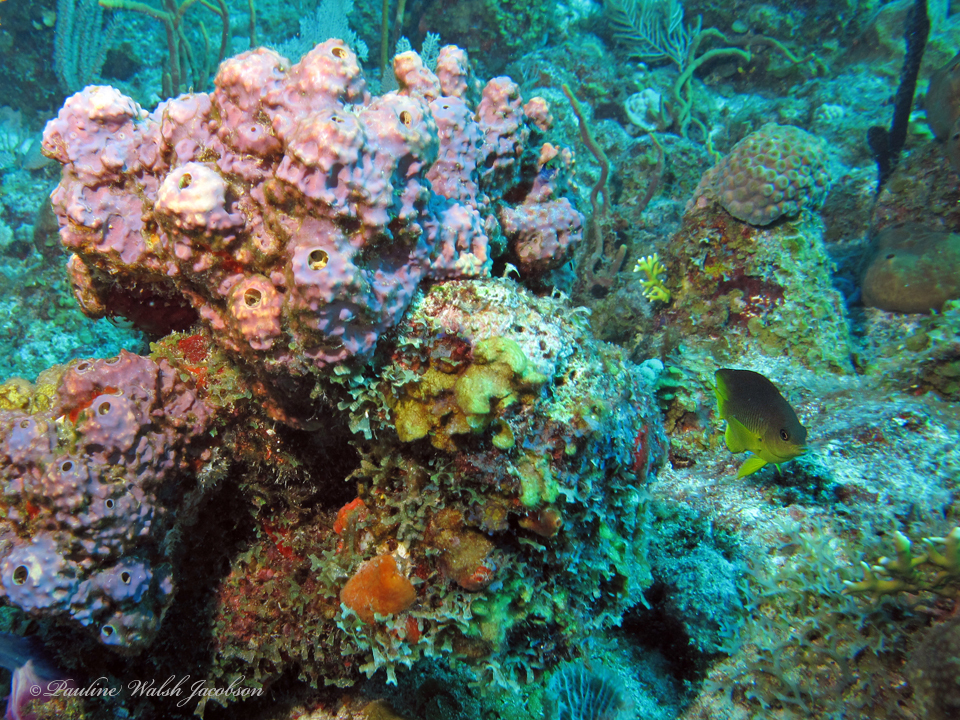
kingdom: Animalia
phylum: Porifera
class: Demospongiae
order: Verongiida
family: Aplysinidae
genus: Aiolochroia
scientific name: Aiolochroia crassa
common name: Branching tube sponge
